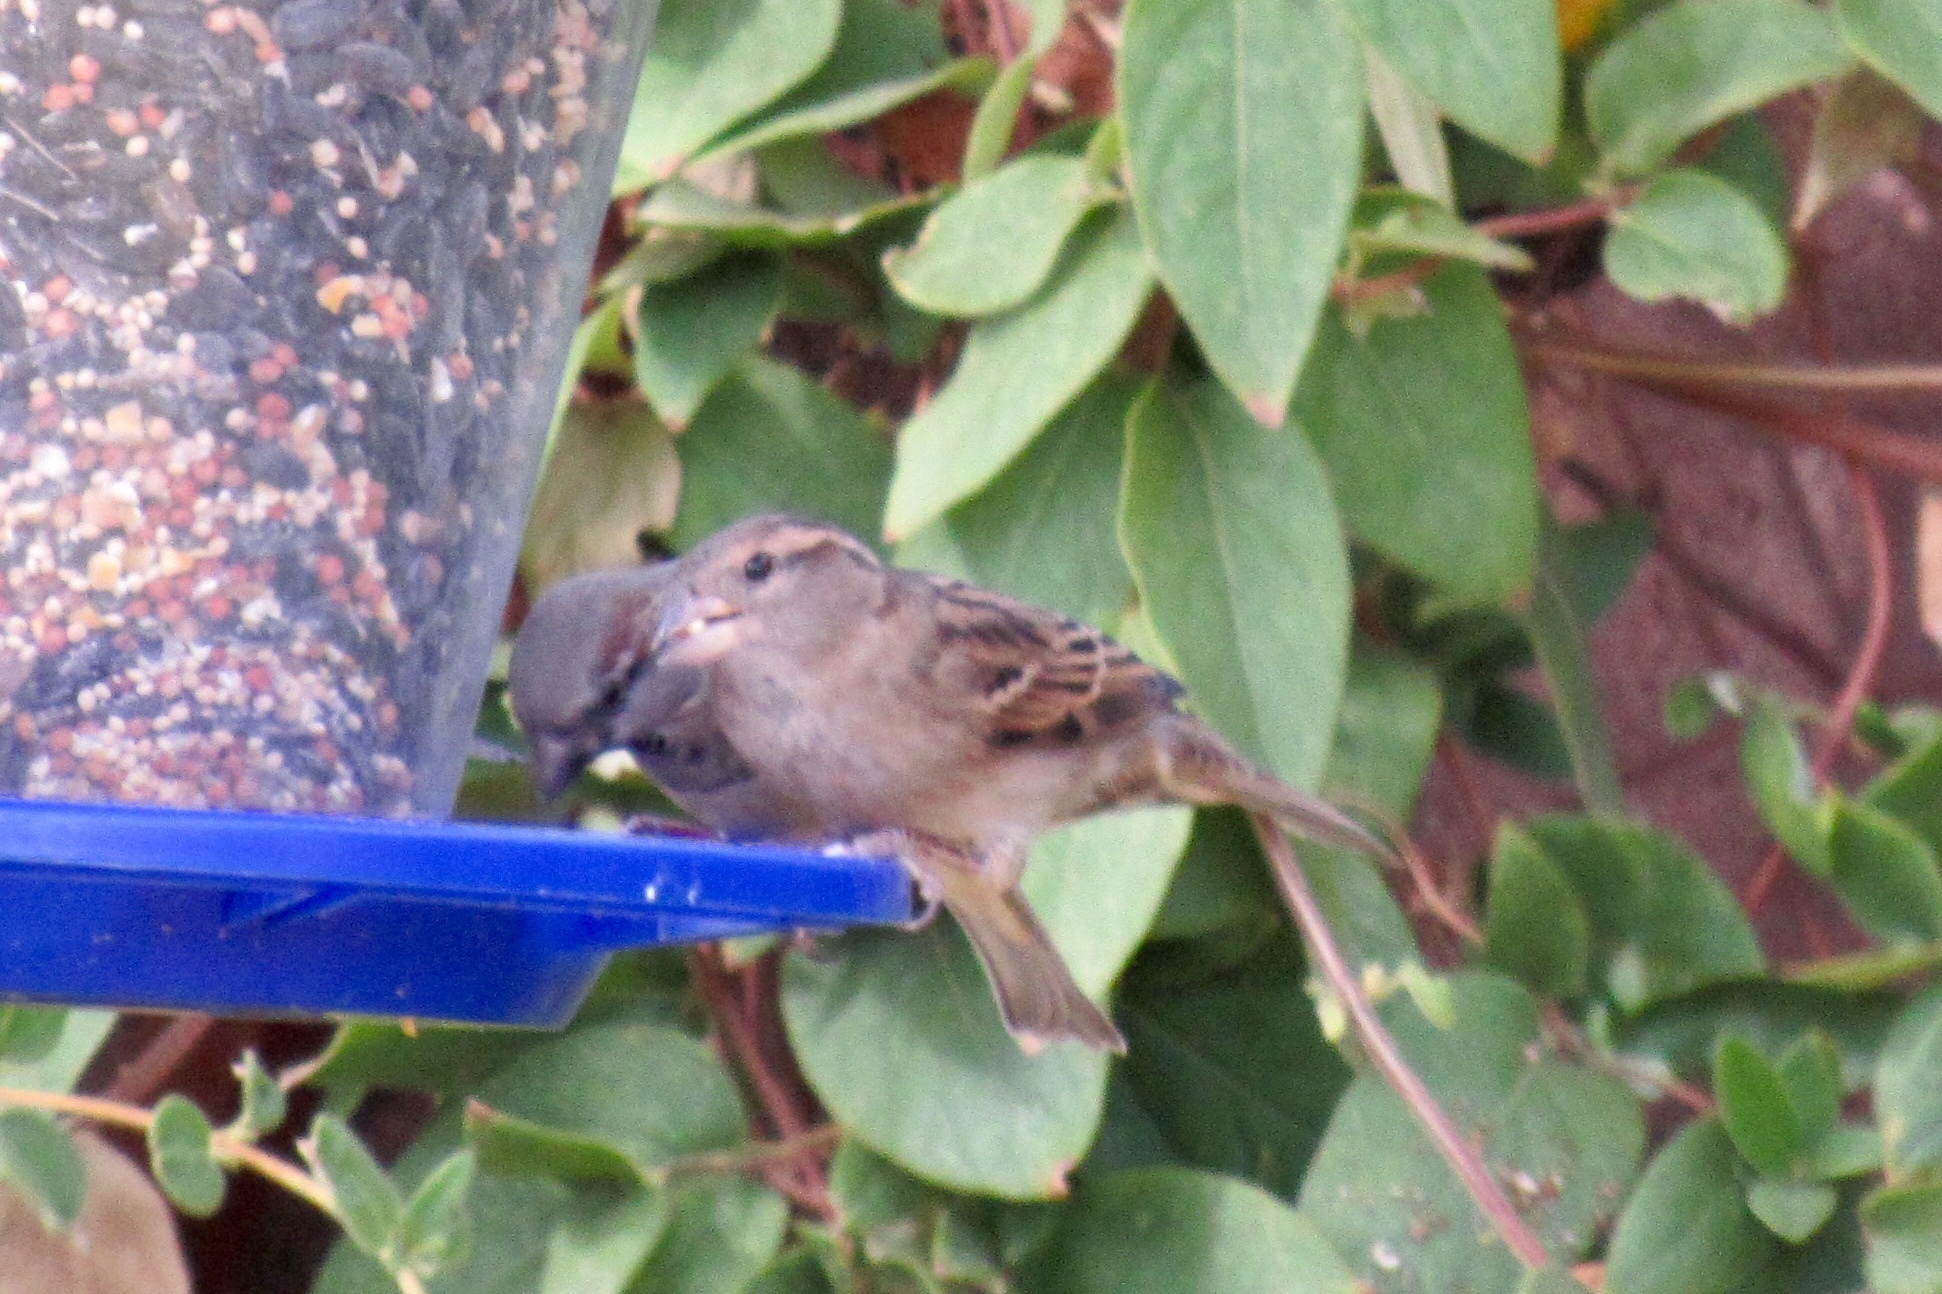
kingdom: Animalia
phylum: Chordata
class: Aves
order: Passeriformes
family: Passeridae
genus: Passer
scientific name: Passer domesticus
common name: House sparrow
